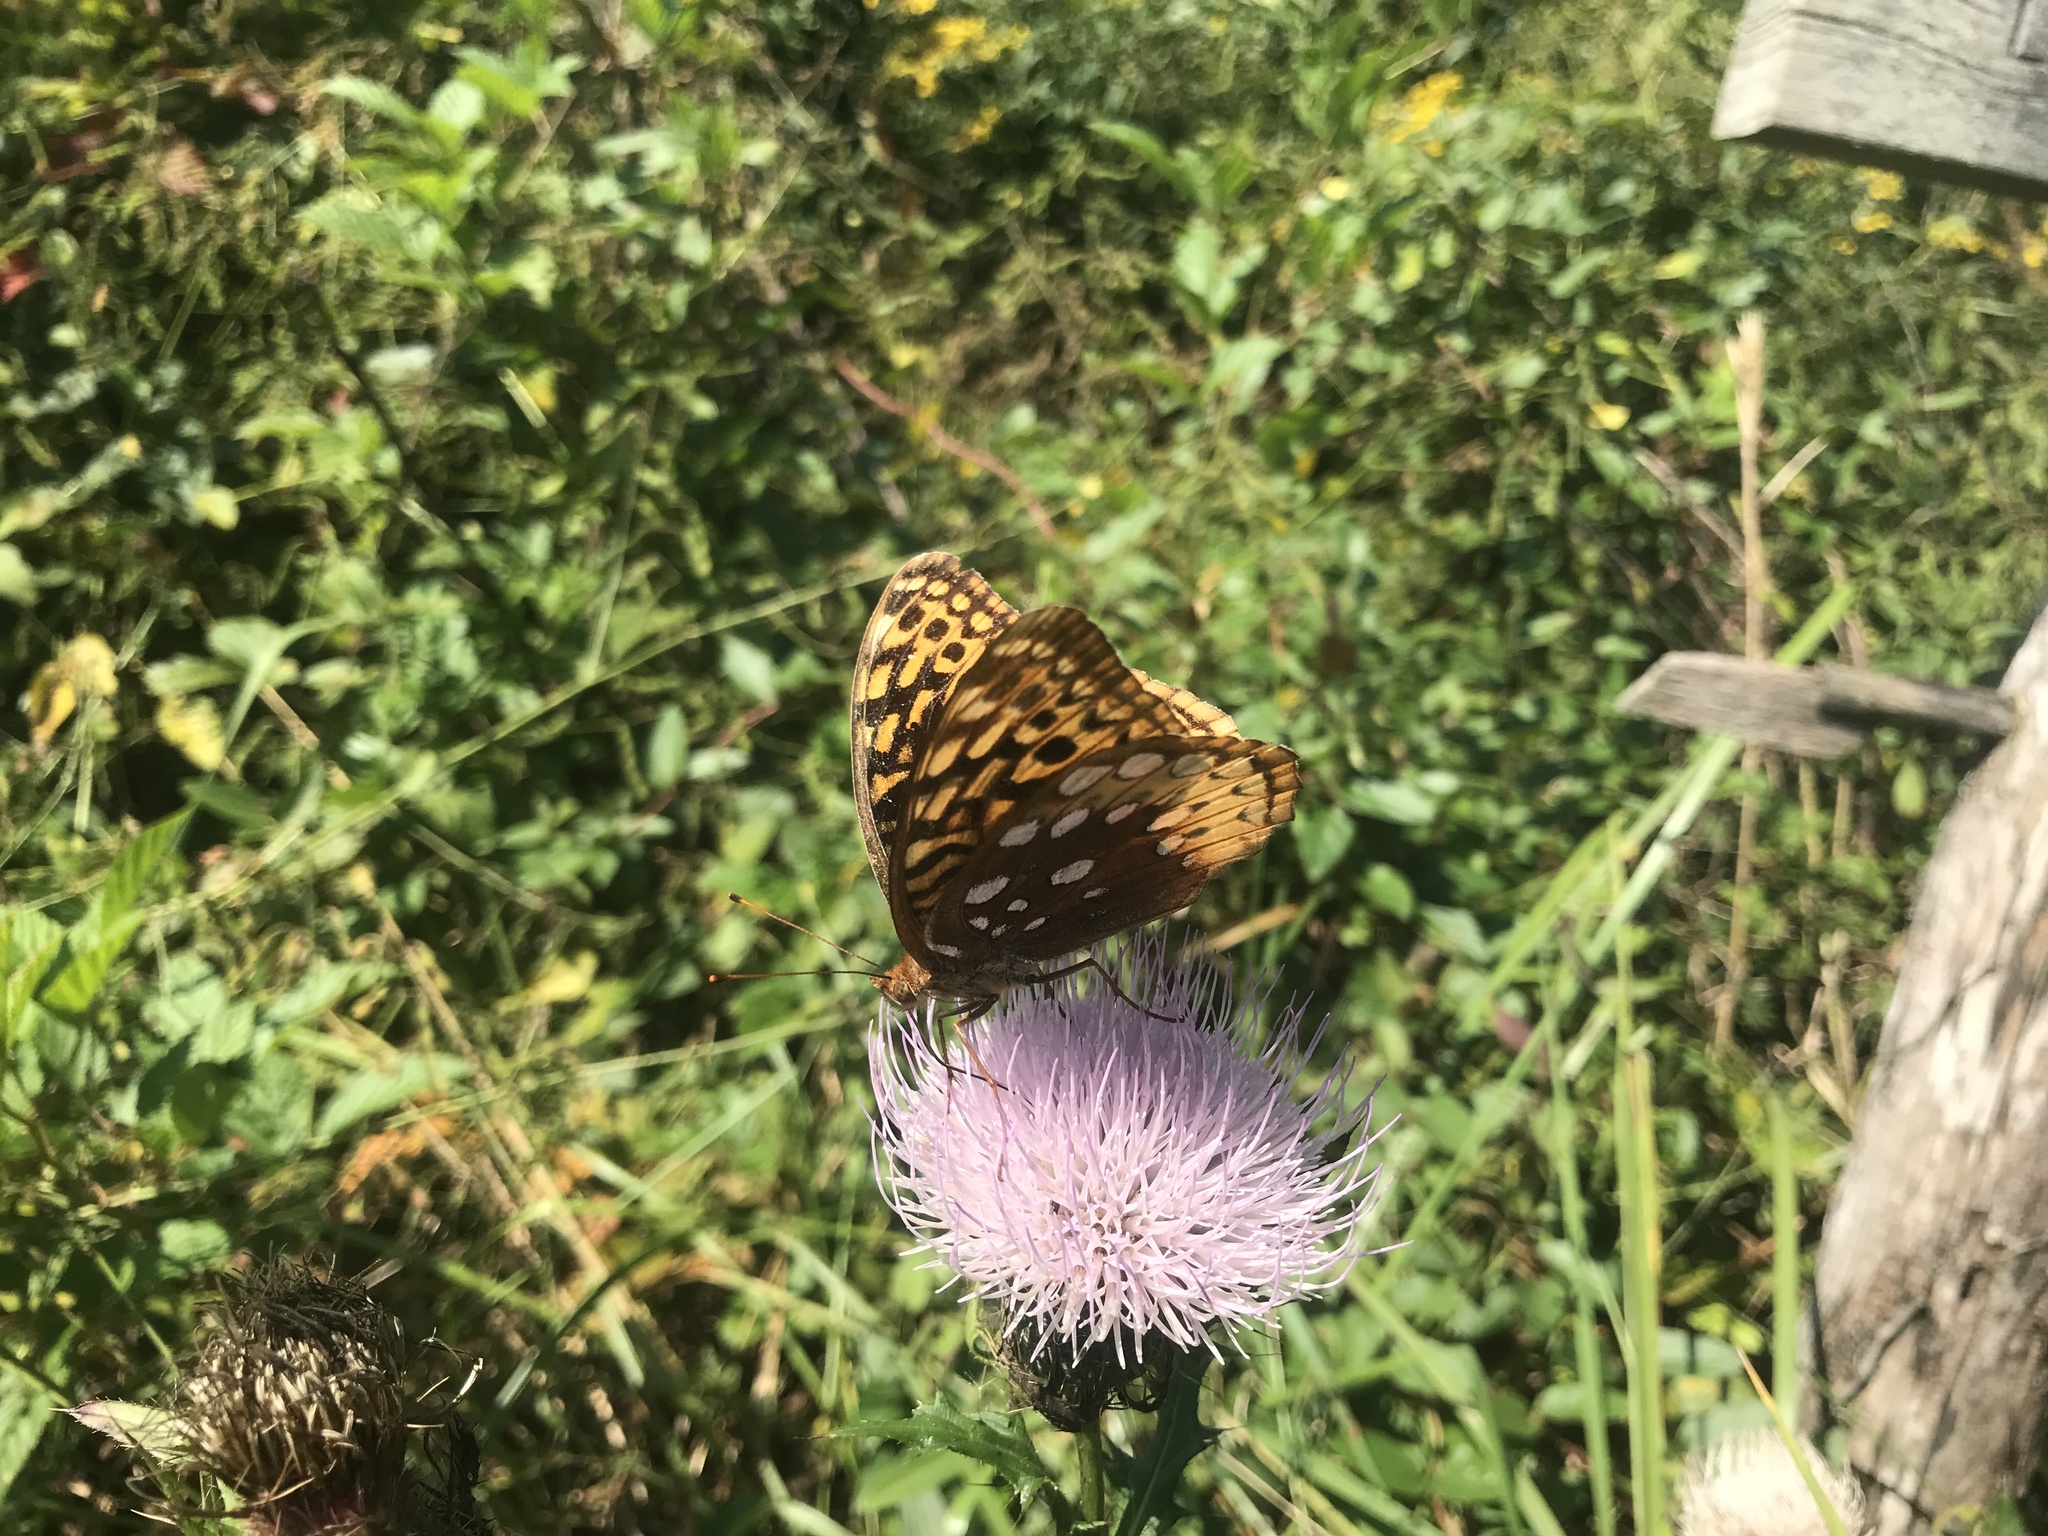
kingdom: Animalia
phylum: Arthropoda
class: Insecta
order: Lepidoptera
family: Nymphalidae
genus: Speyeria
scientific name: Speyeria cybele
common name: Great spangled fritillary
